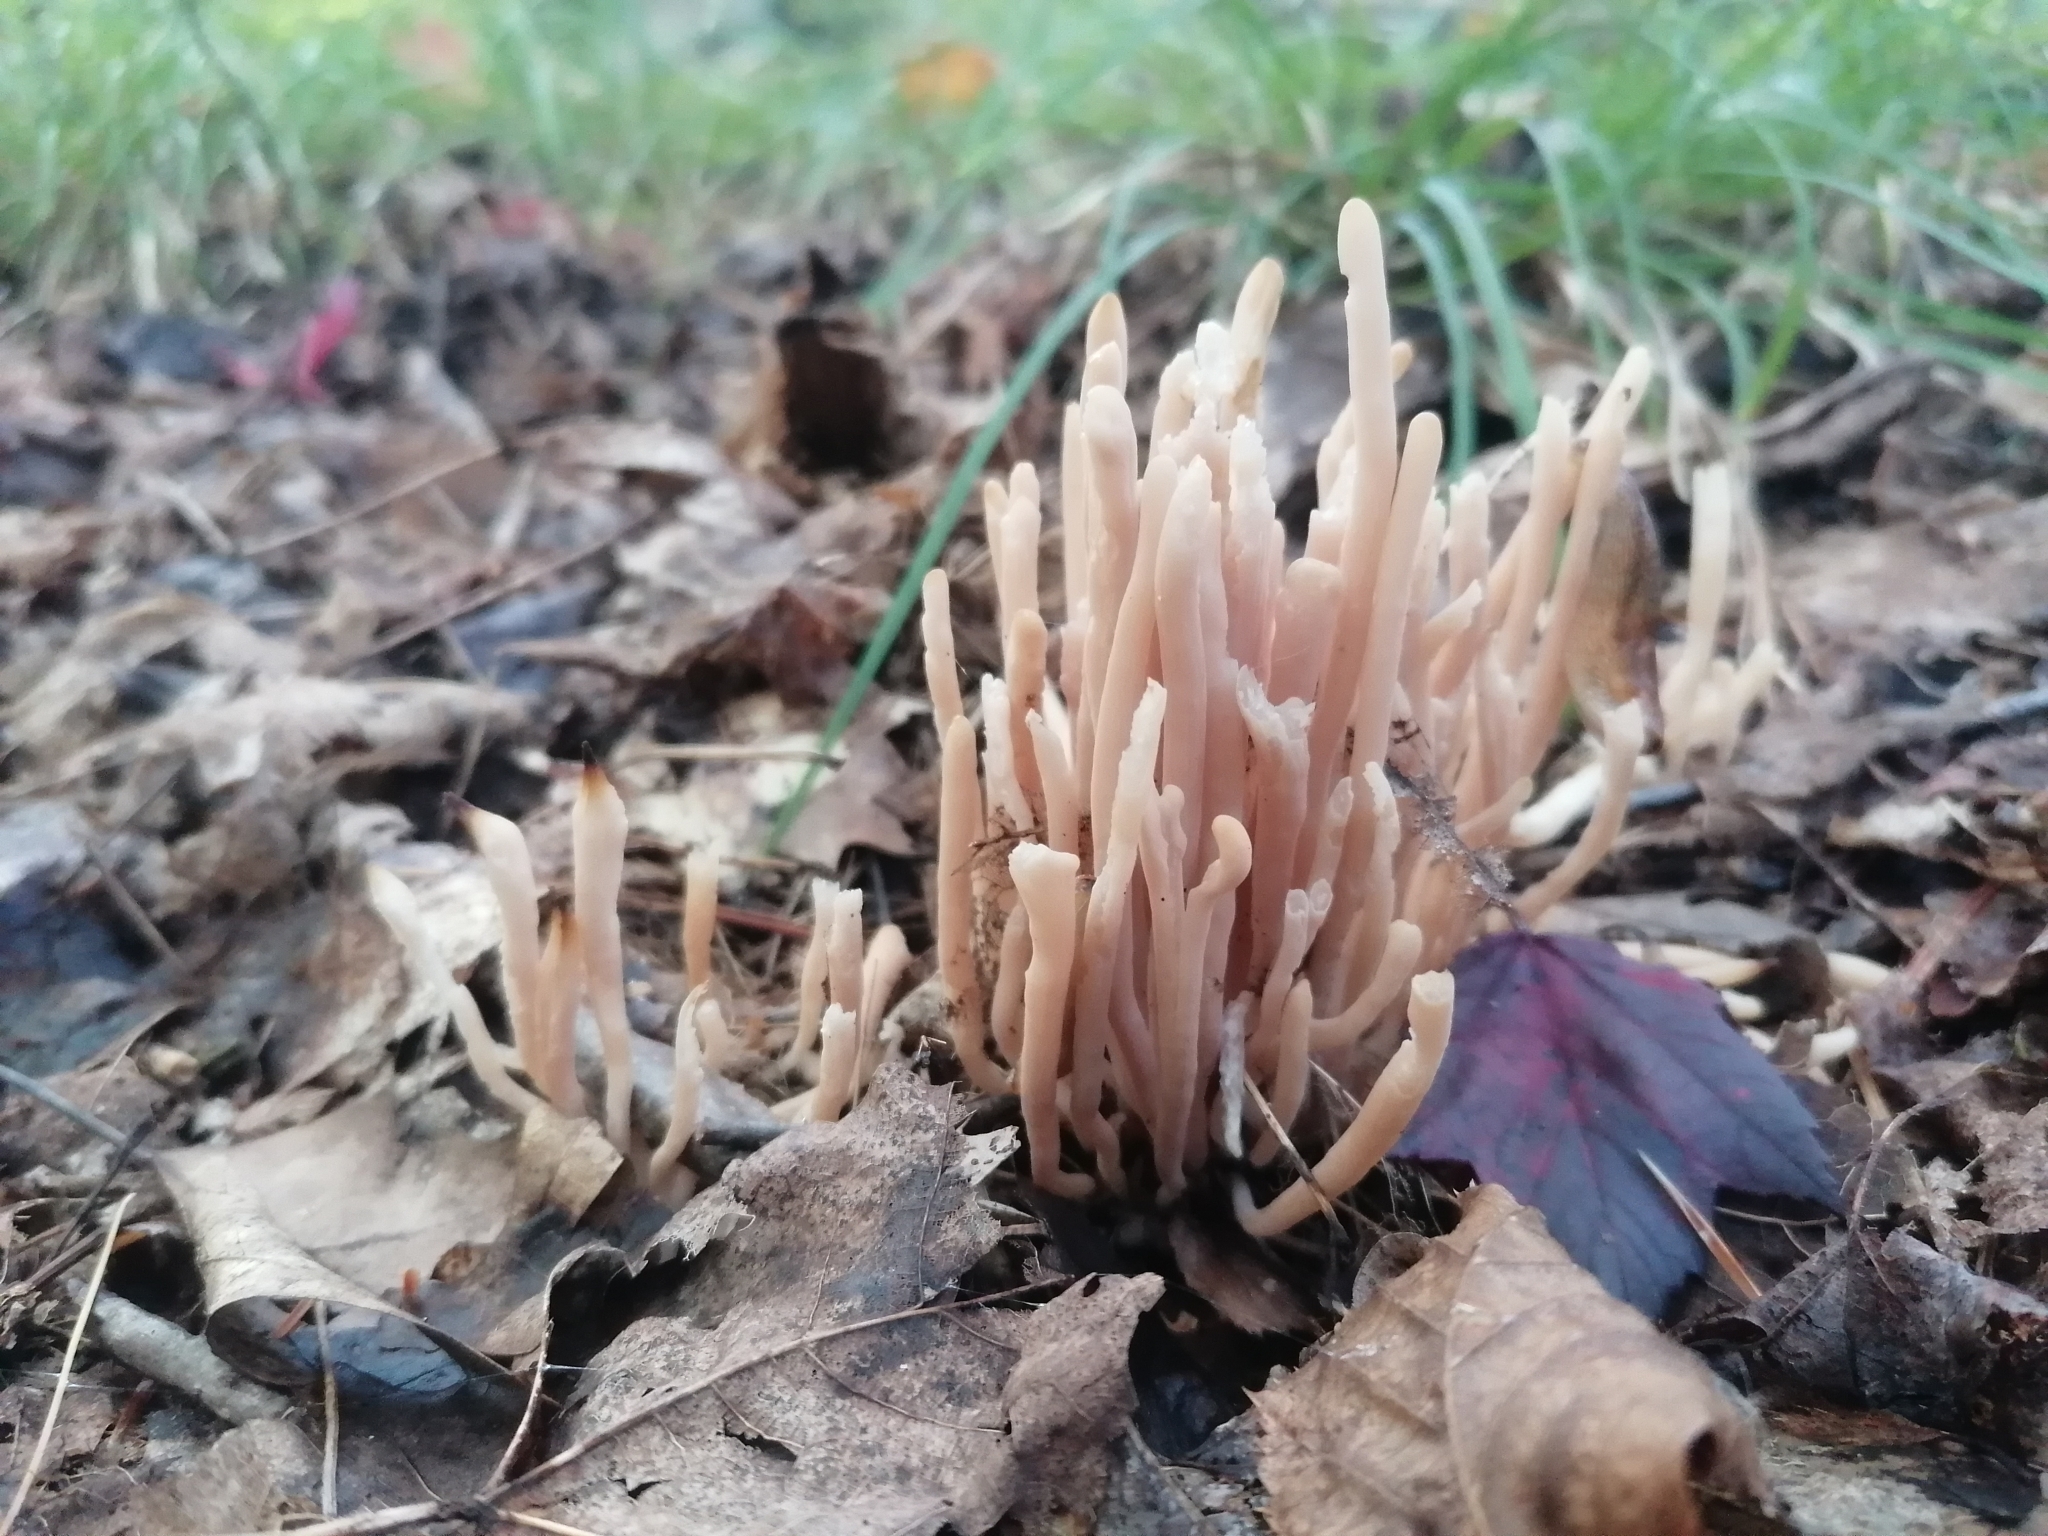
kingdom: Fungi
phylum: Basidiomycota
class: Agaricomycetes
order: Agaricales
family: Clavariaceae
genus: Clavaria
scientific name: Clavaria fumosa
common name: Smoky spindles
